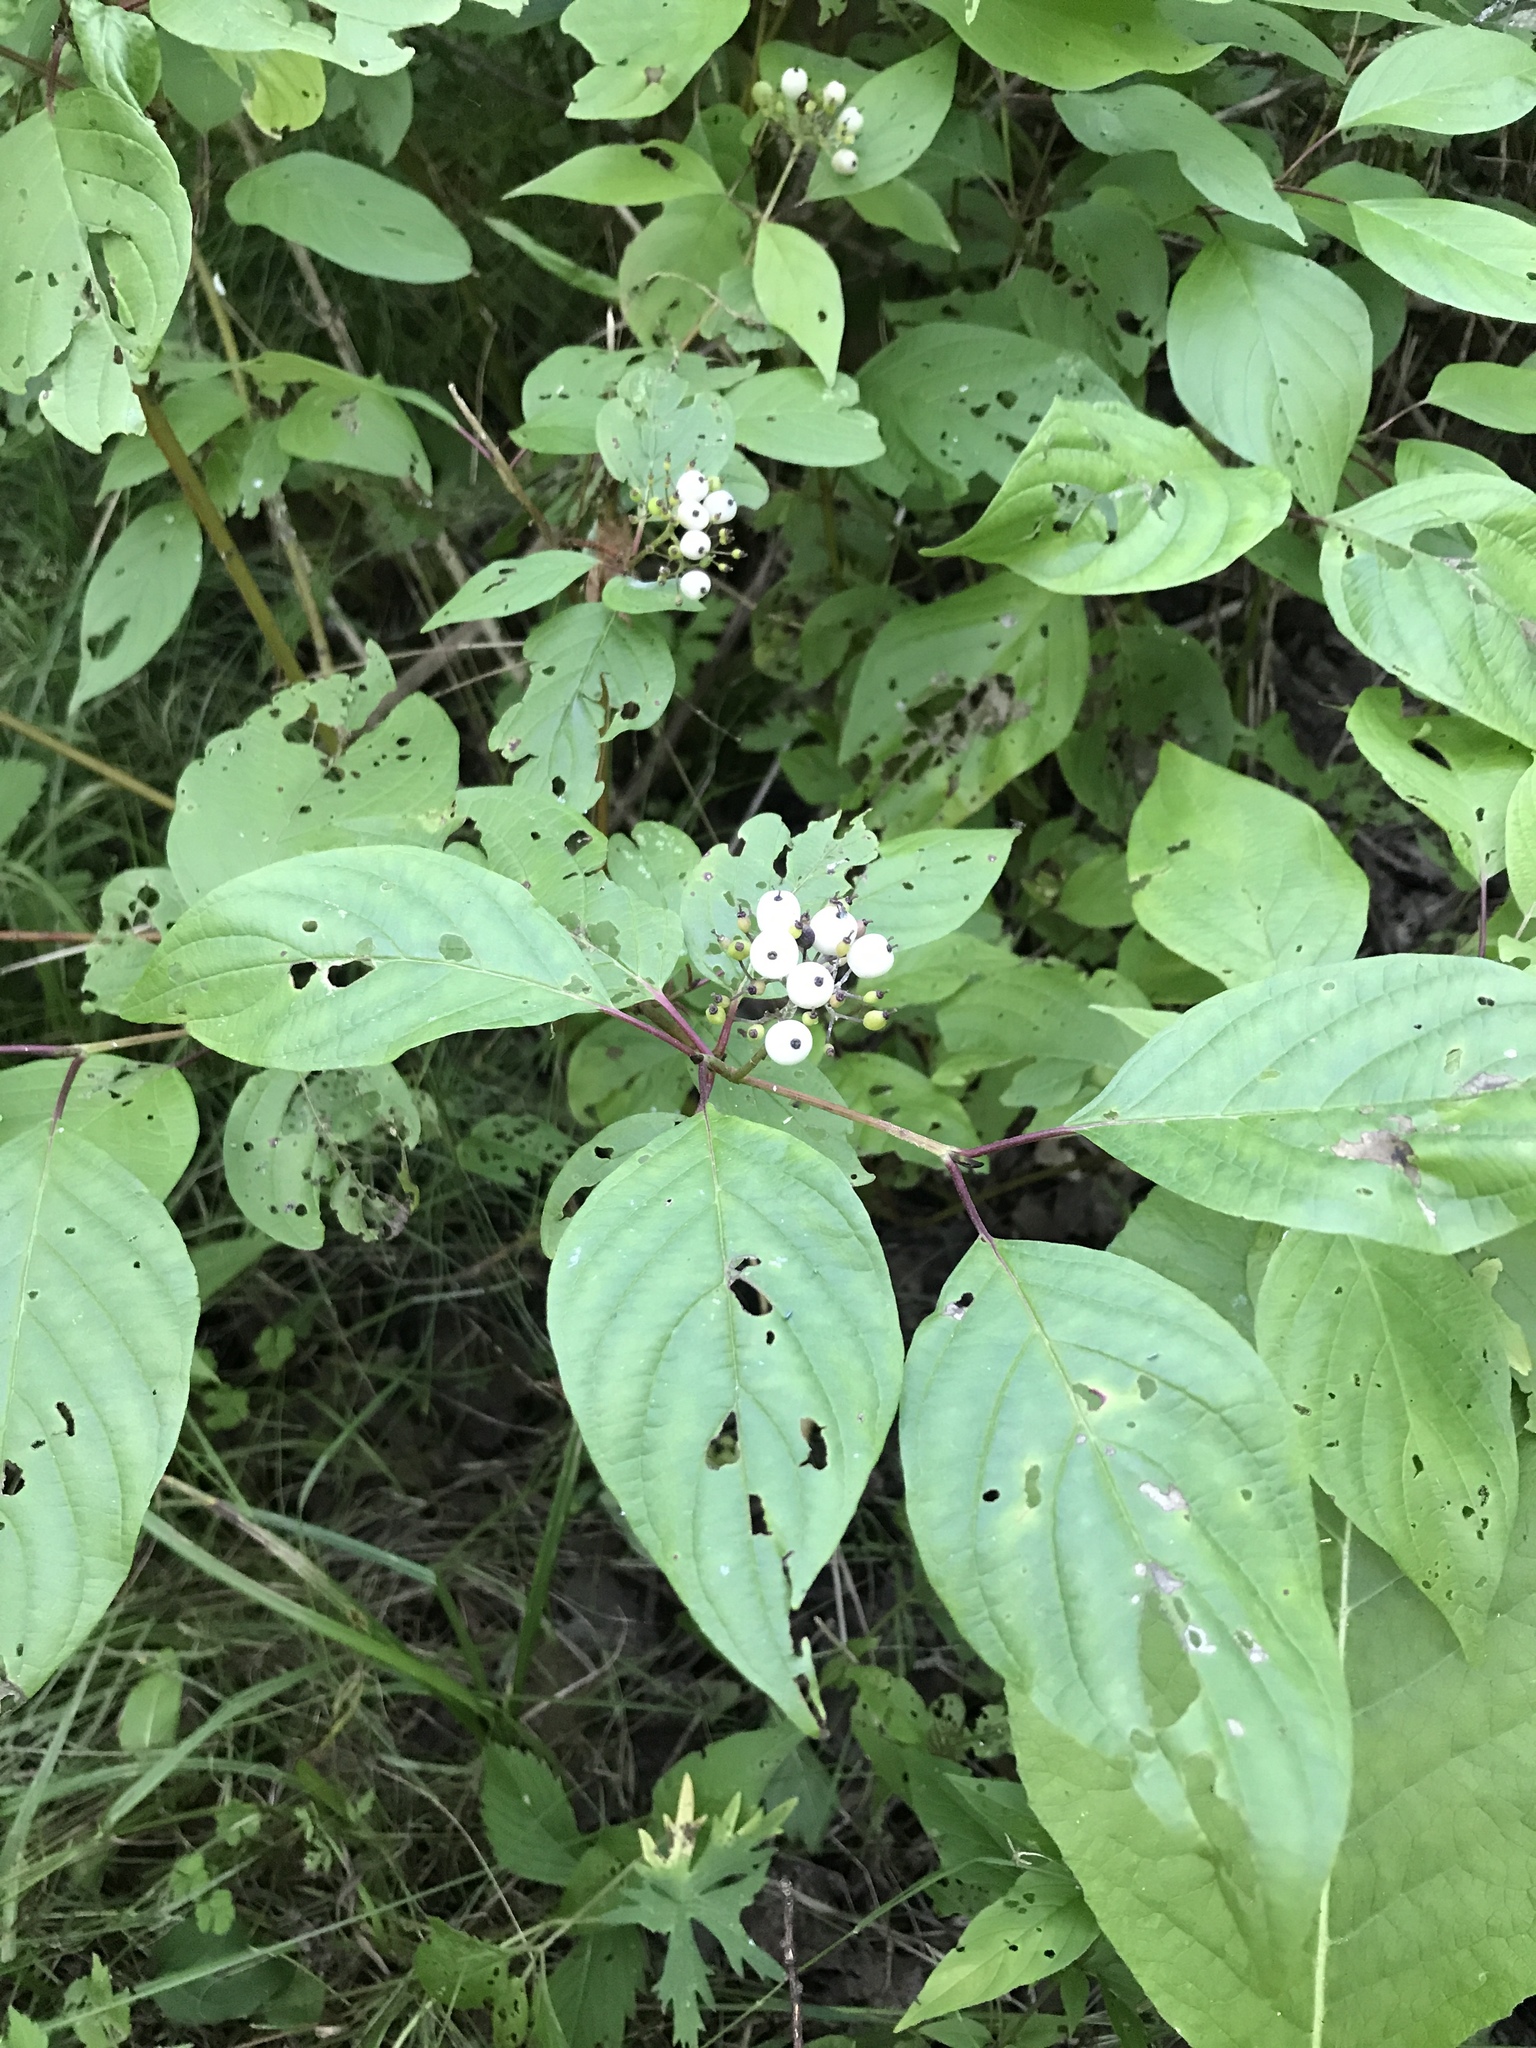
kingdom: Plantae
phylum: Tracheophyta
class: Magnoliopsida
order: Cornales
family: Cornaceae
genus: Cornus
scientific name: Cornus sericea
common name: Red-osier dogwood
